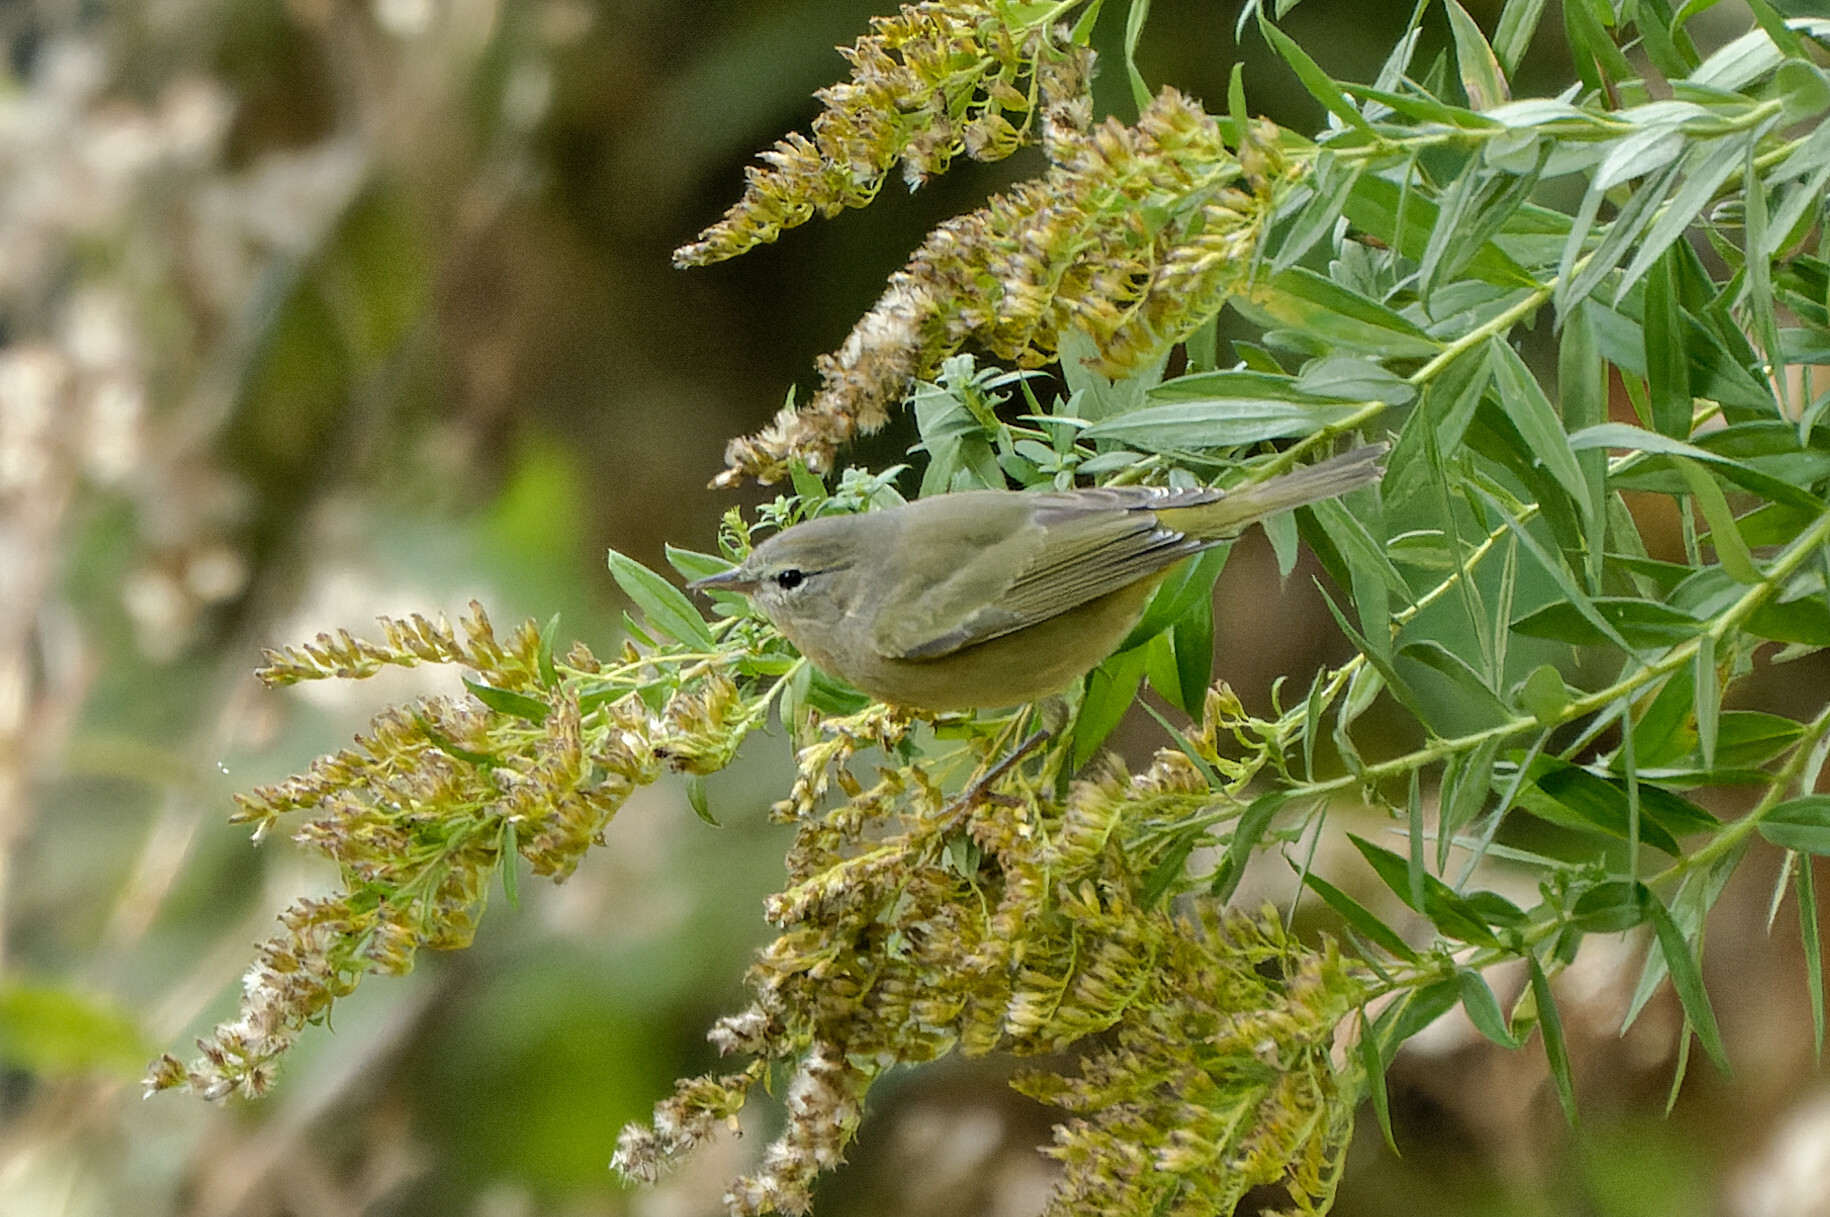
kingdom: Animalia
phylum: Chordata
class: Aves
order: Passeriformes
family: Parulidae
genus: Leiothlypis
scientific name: Leiothlypis celata
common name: Orange-crowned warbler
